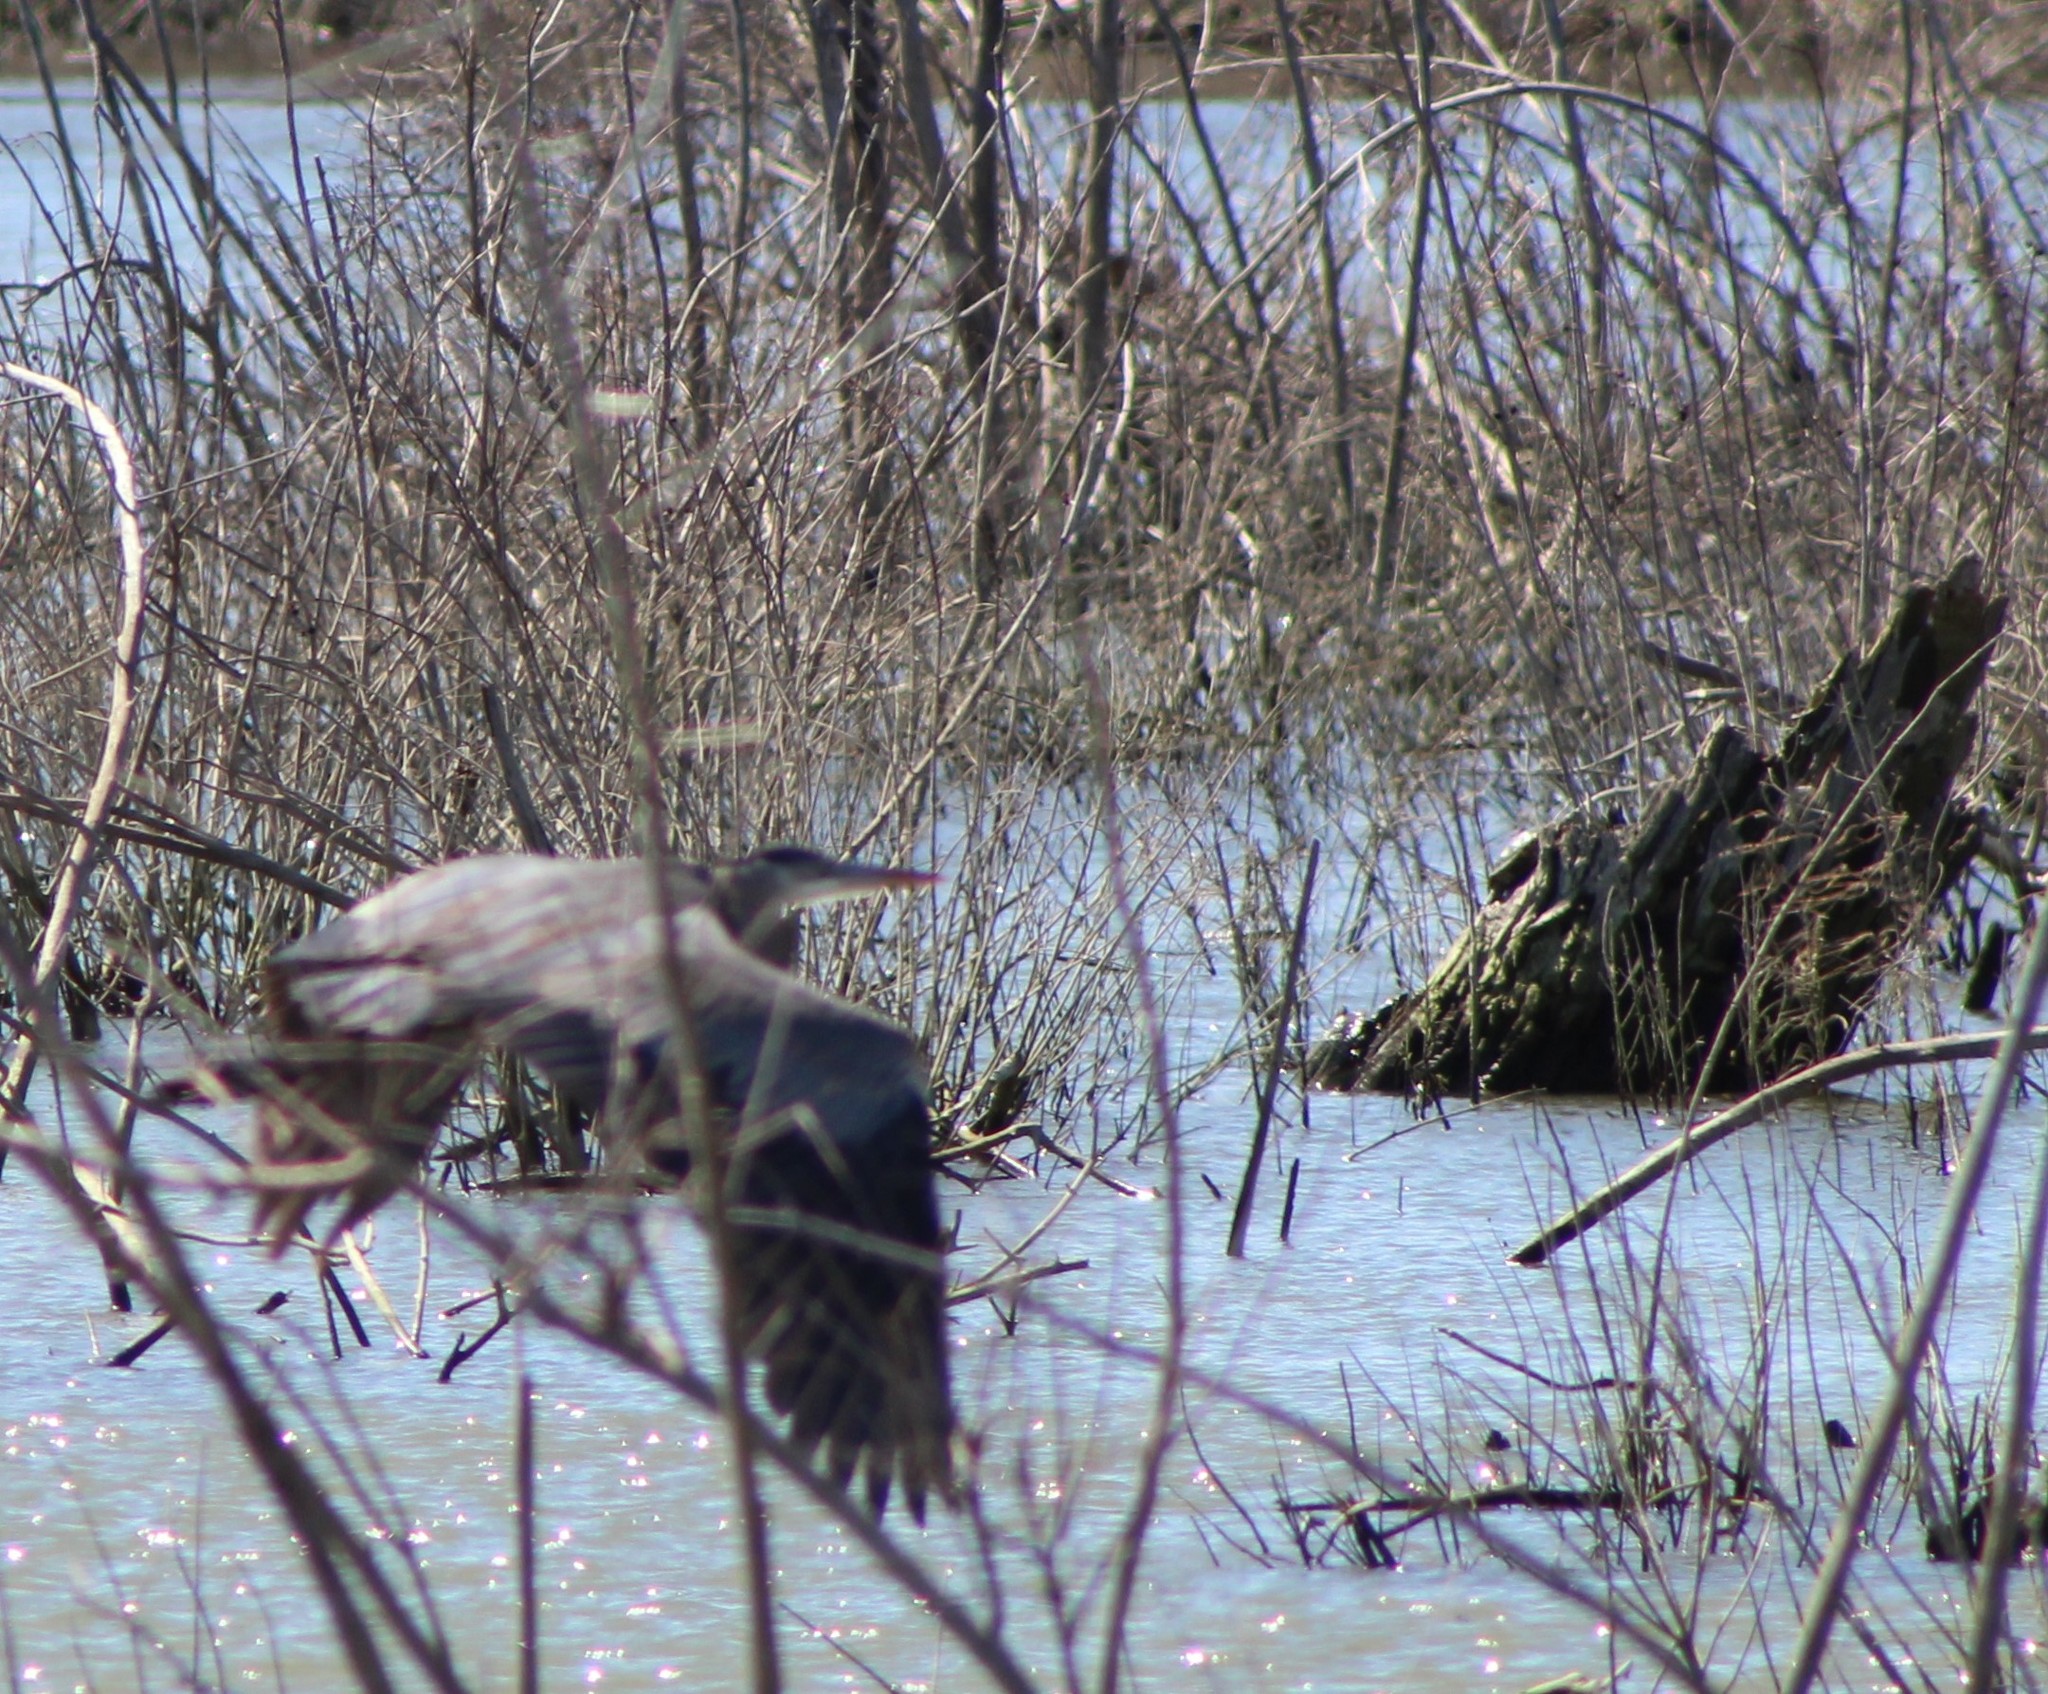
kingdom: Animalia
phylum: Chordata
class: Aves
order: Pelecaniformes
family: Ardeidae
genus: Ardea
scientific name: Ardea herodias
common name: Great blue heron
